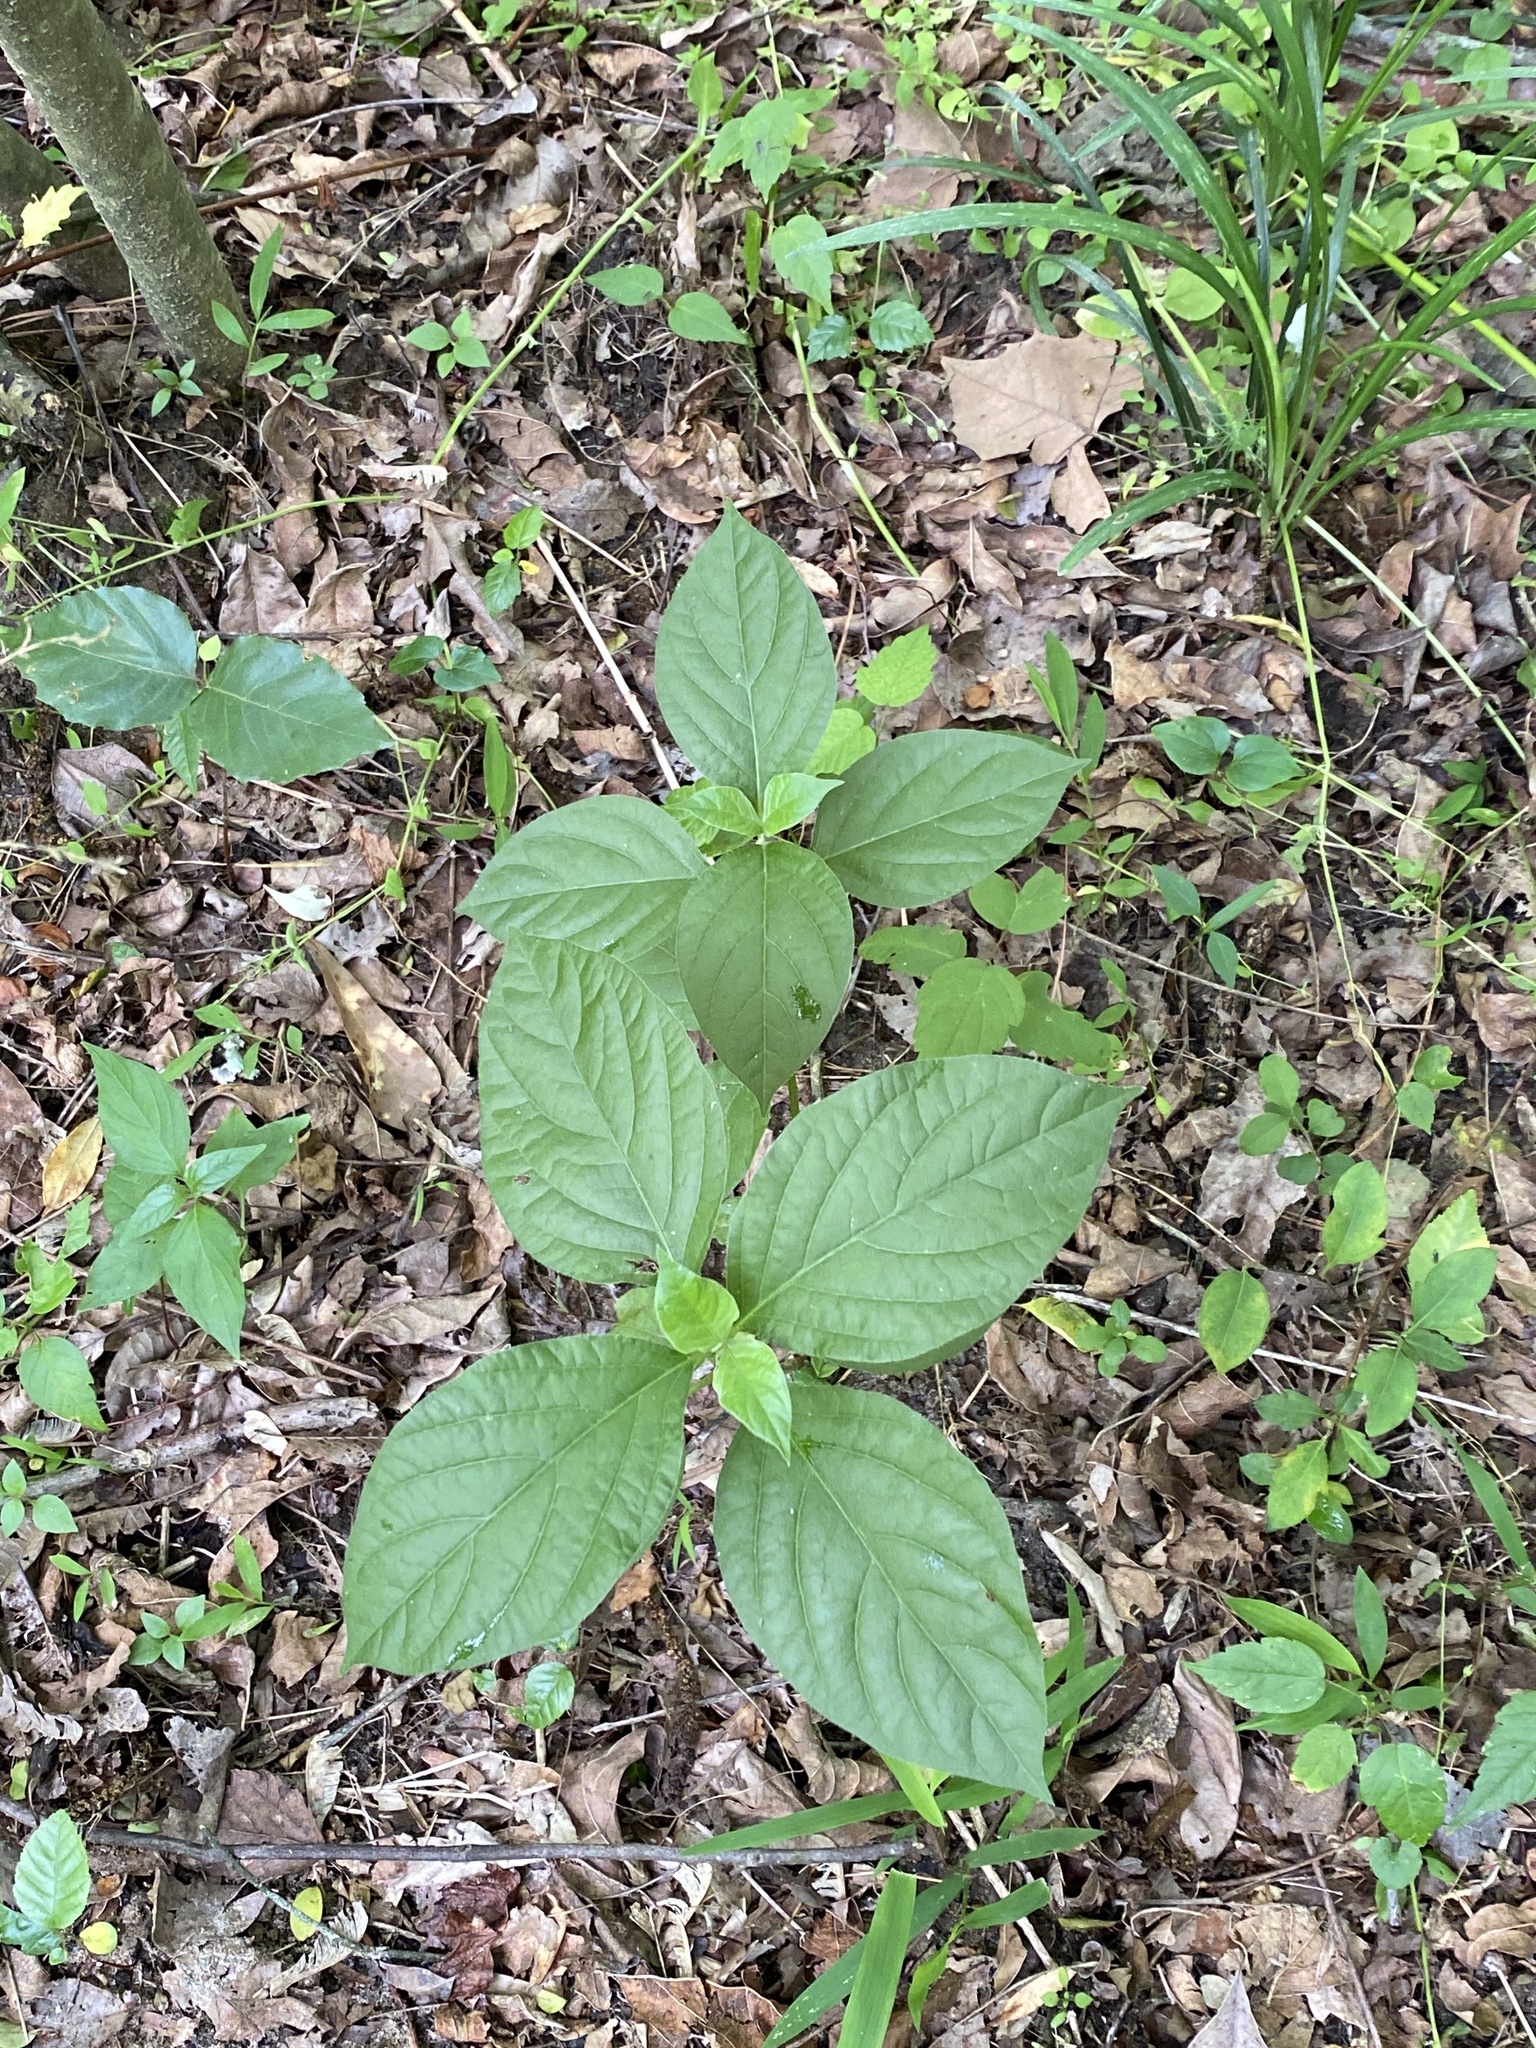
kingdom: Plantae
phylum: Tracheophyta
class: Magnoliopsida
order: Caryophyllales
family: Amaranthaceae
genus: Achyranthes
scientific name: Achyranthes bidentata
